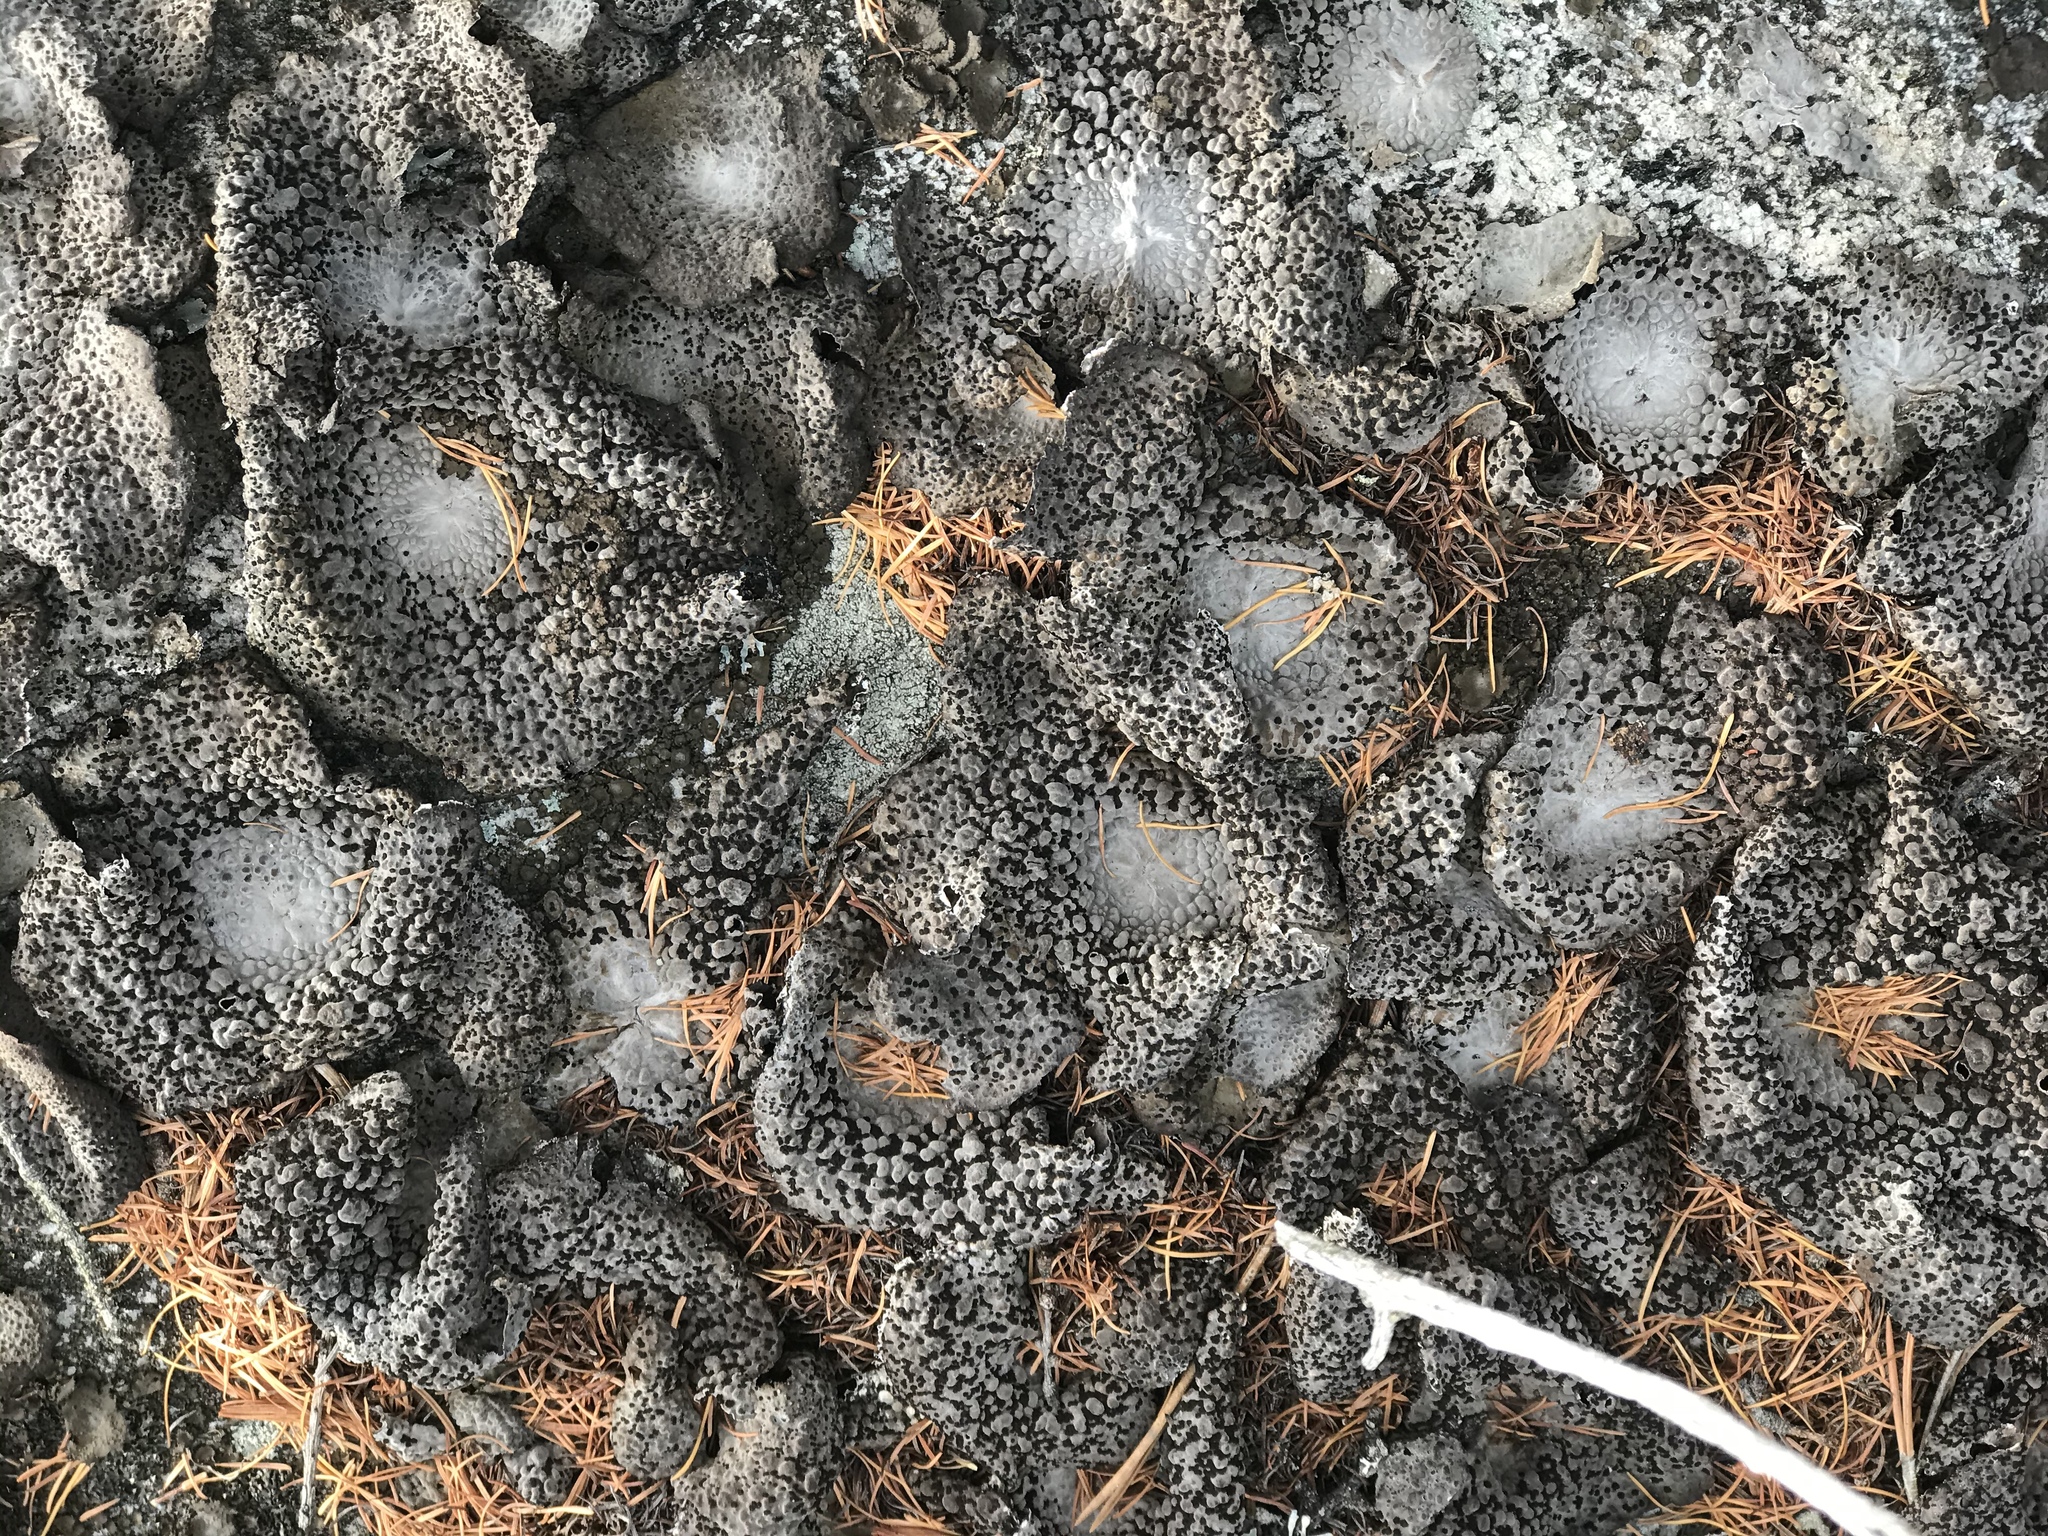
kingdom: Fungi
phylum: Ascomycota
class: Lecanoromycetes
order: Umbilicariales
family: Umbilicariaceae
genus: Lasallia
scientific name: Lasallia papulosa
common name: Common toadskin lichen
